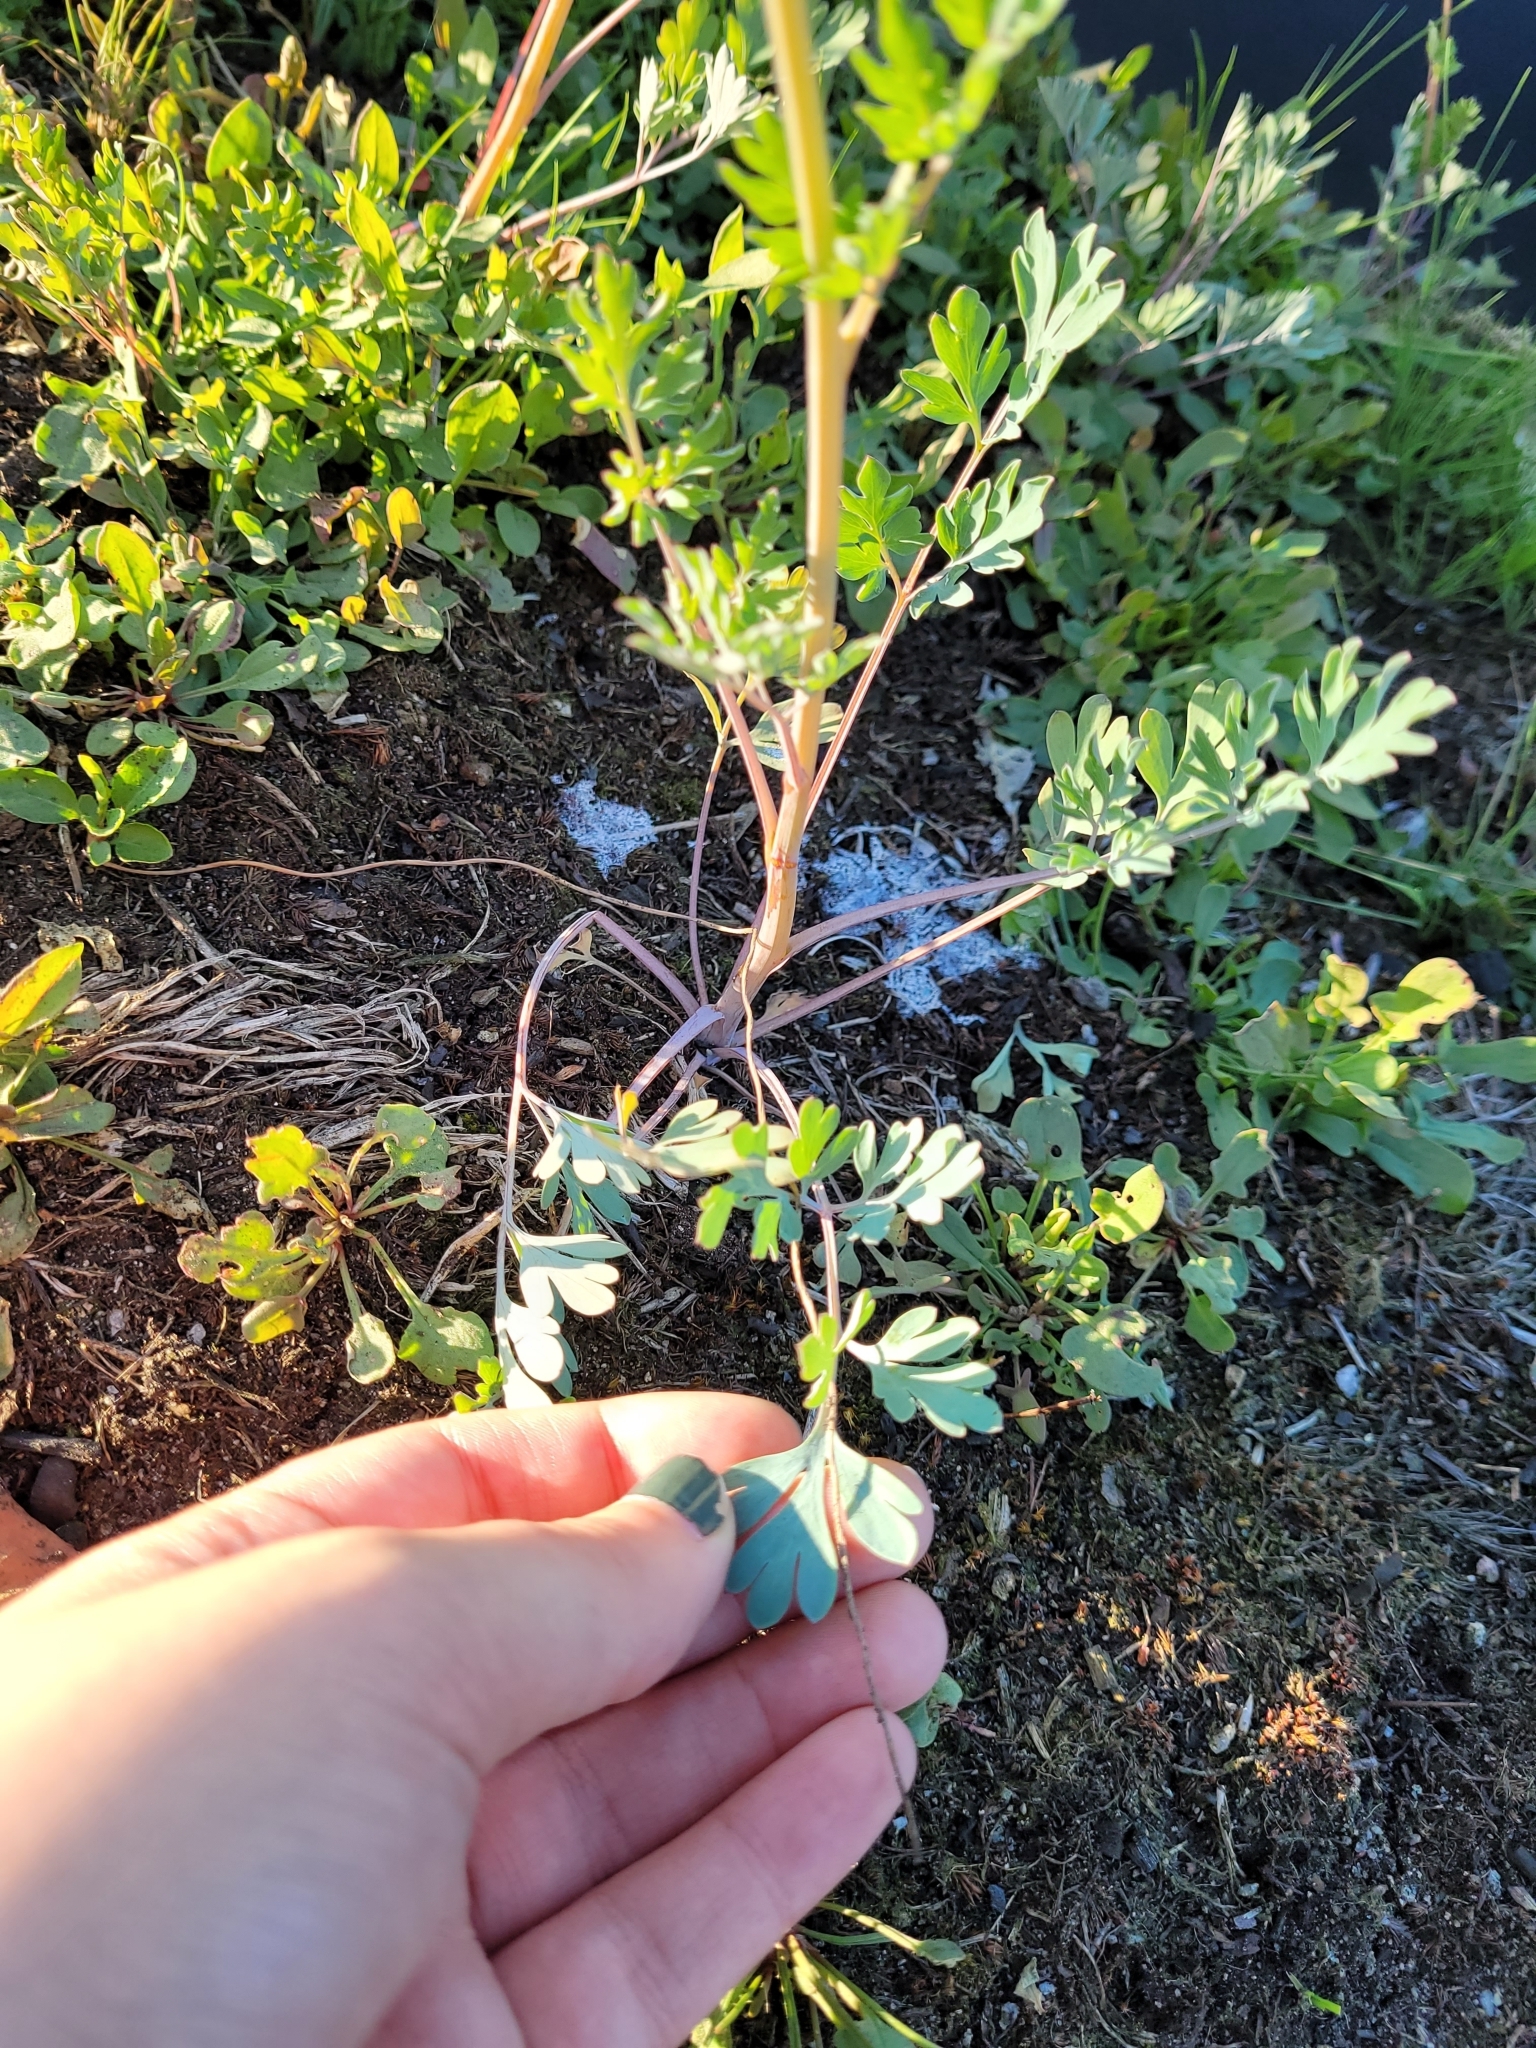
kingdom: Plantae
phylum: Tracheophyta
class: Magnoliopsida
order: Ranunculales
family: Papaveraceae
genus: Capnoides
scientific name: Capnoides sempervirens
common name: Rock harlequin
